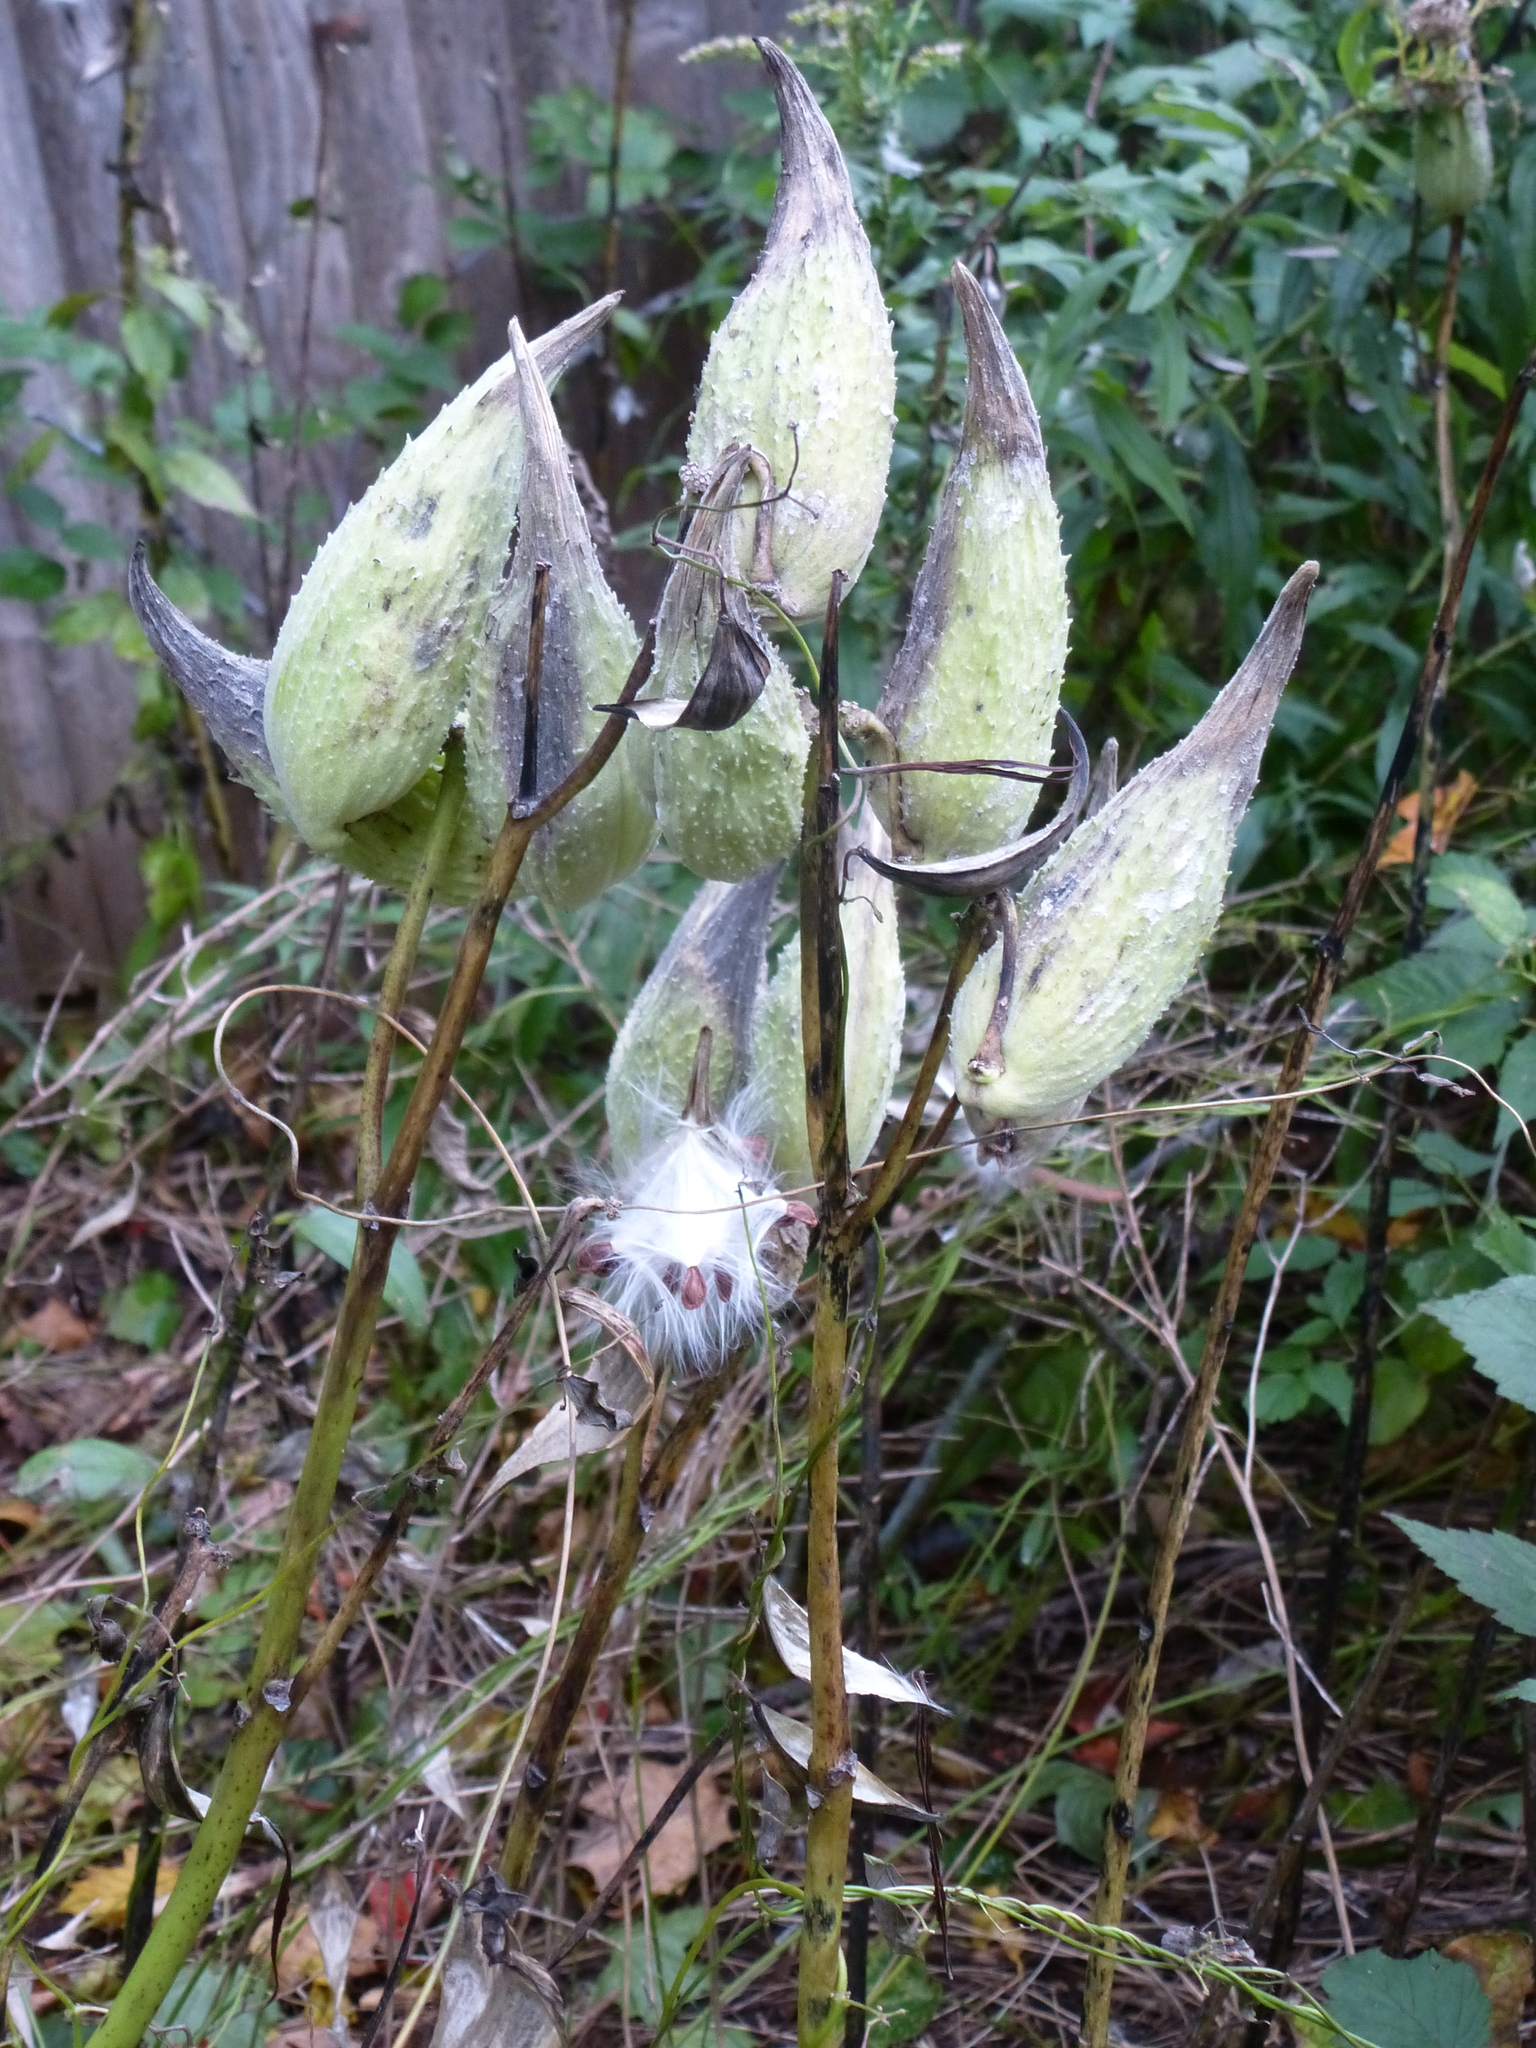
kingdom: Plantae
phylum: Tracheophyta
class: Magnoliopsida
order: Gentianales
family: Apocynaceae
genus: Asclepias
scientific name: Asclepias syriaca
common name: Common milkweed
